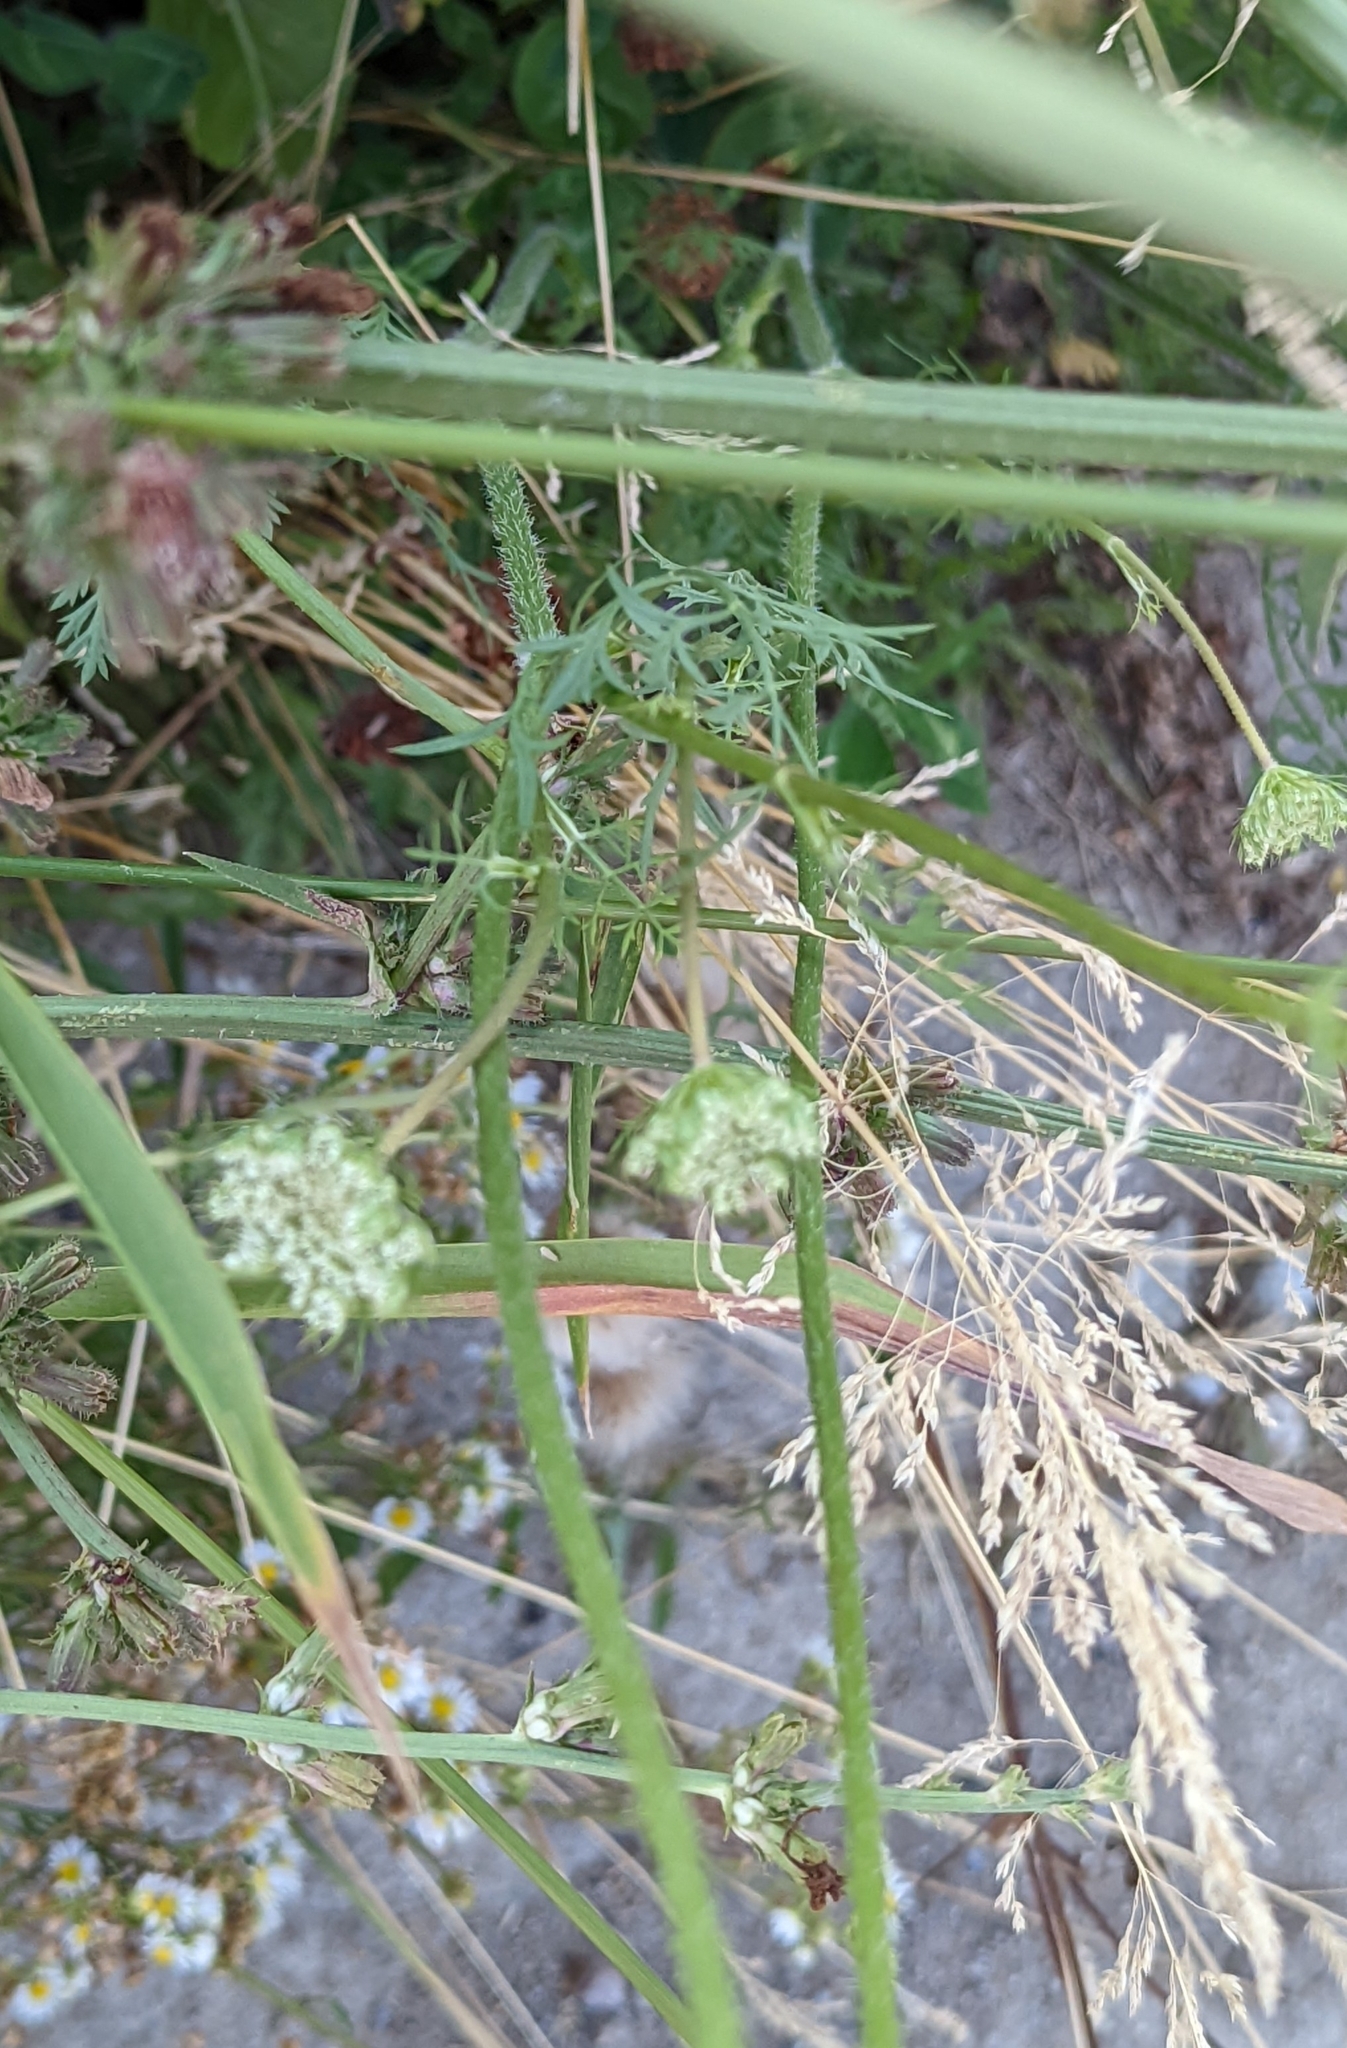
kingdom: Plantae
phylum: Tracheophyta
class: Magnoliopsida
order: Apiales
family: Apiaceae
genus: Daucus
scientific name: Daucus carota
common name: Wild carrot
